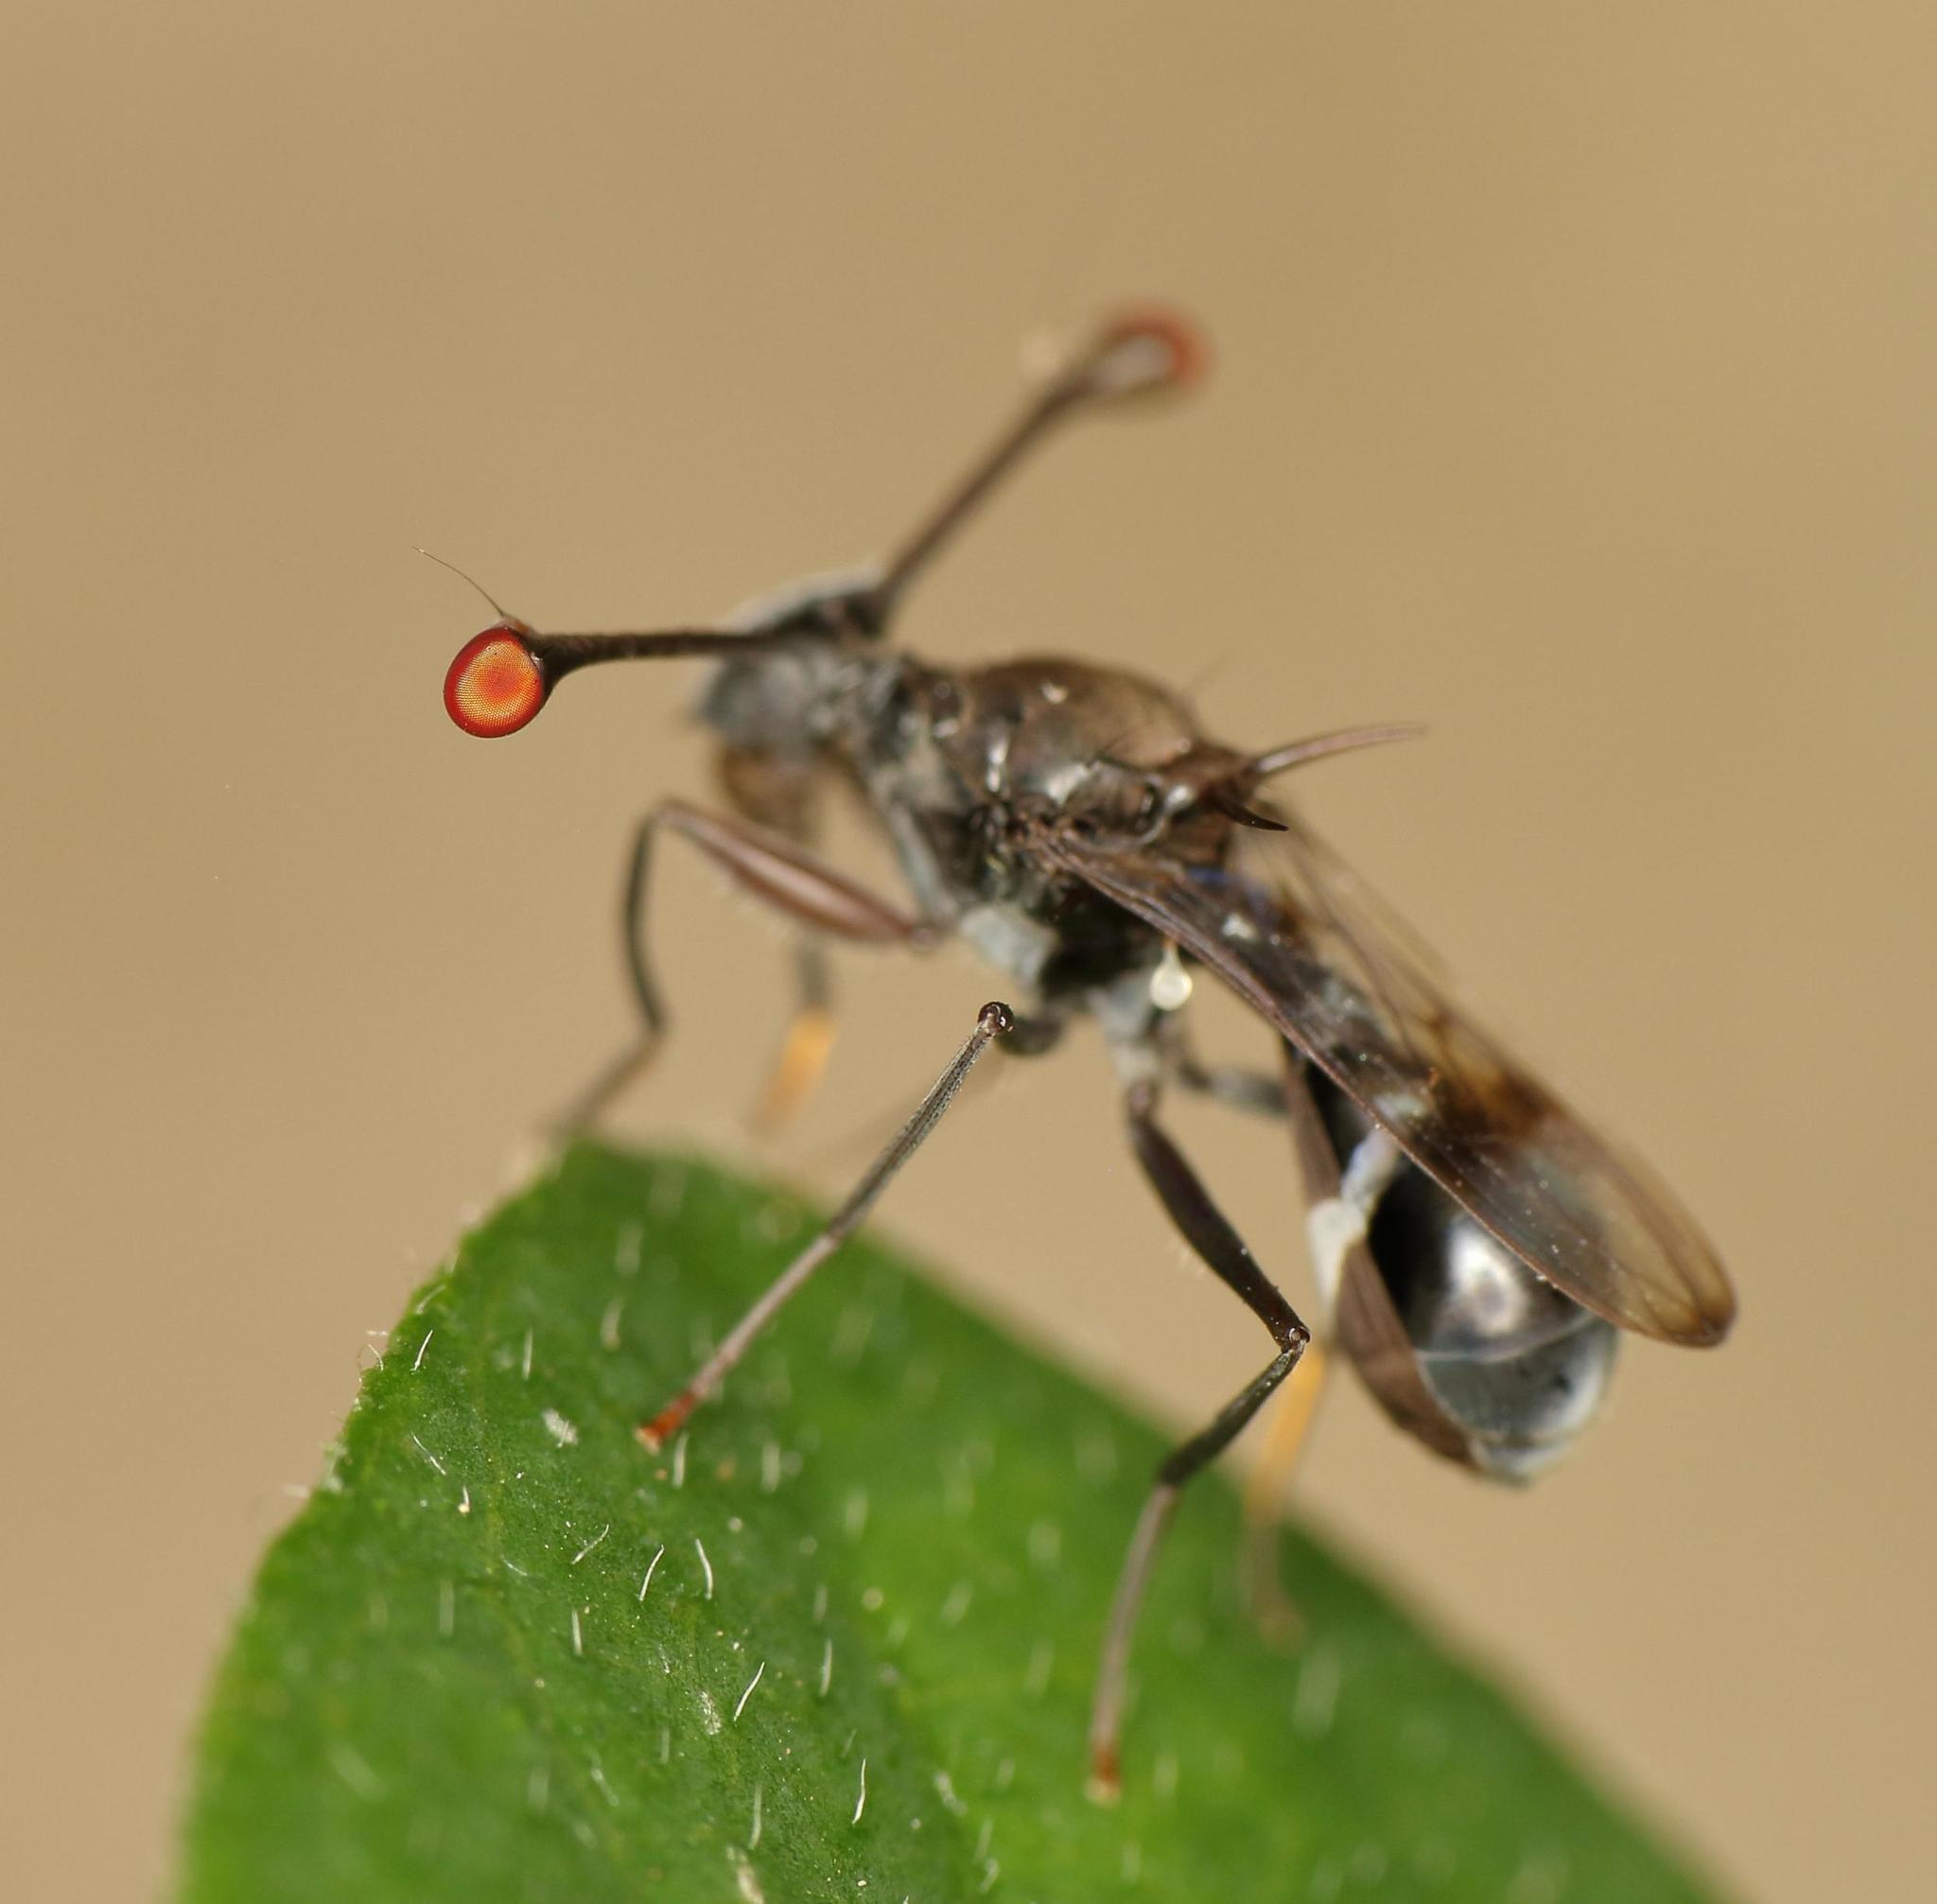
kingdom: Animalia
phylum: Arthropoda
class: Insecta
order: Diptera
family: Diopsidae
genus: Chaetodiopsis
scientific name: Chaetodiopsis
